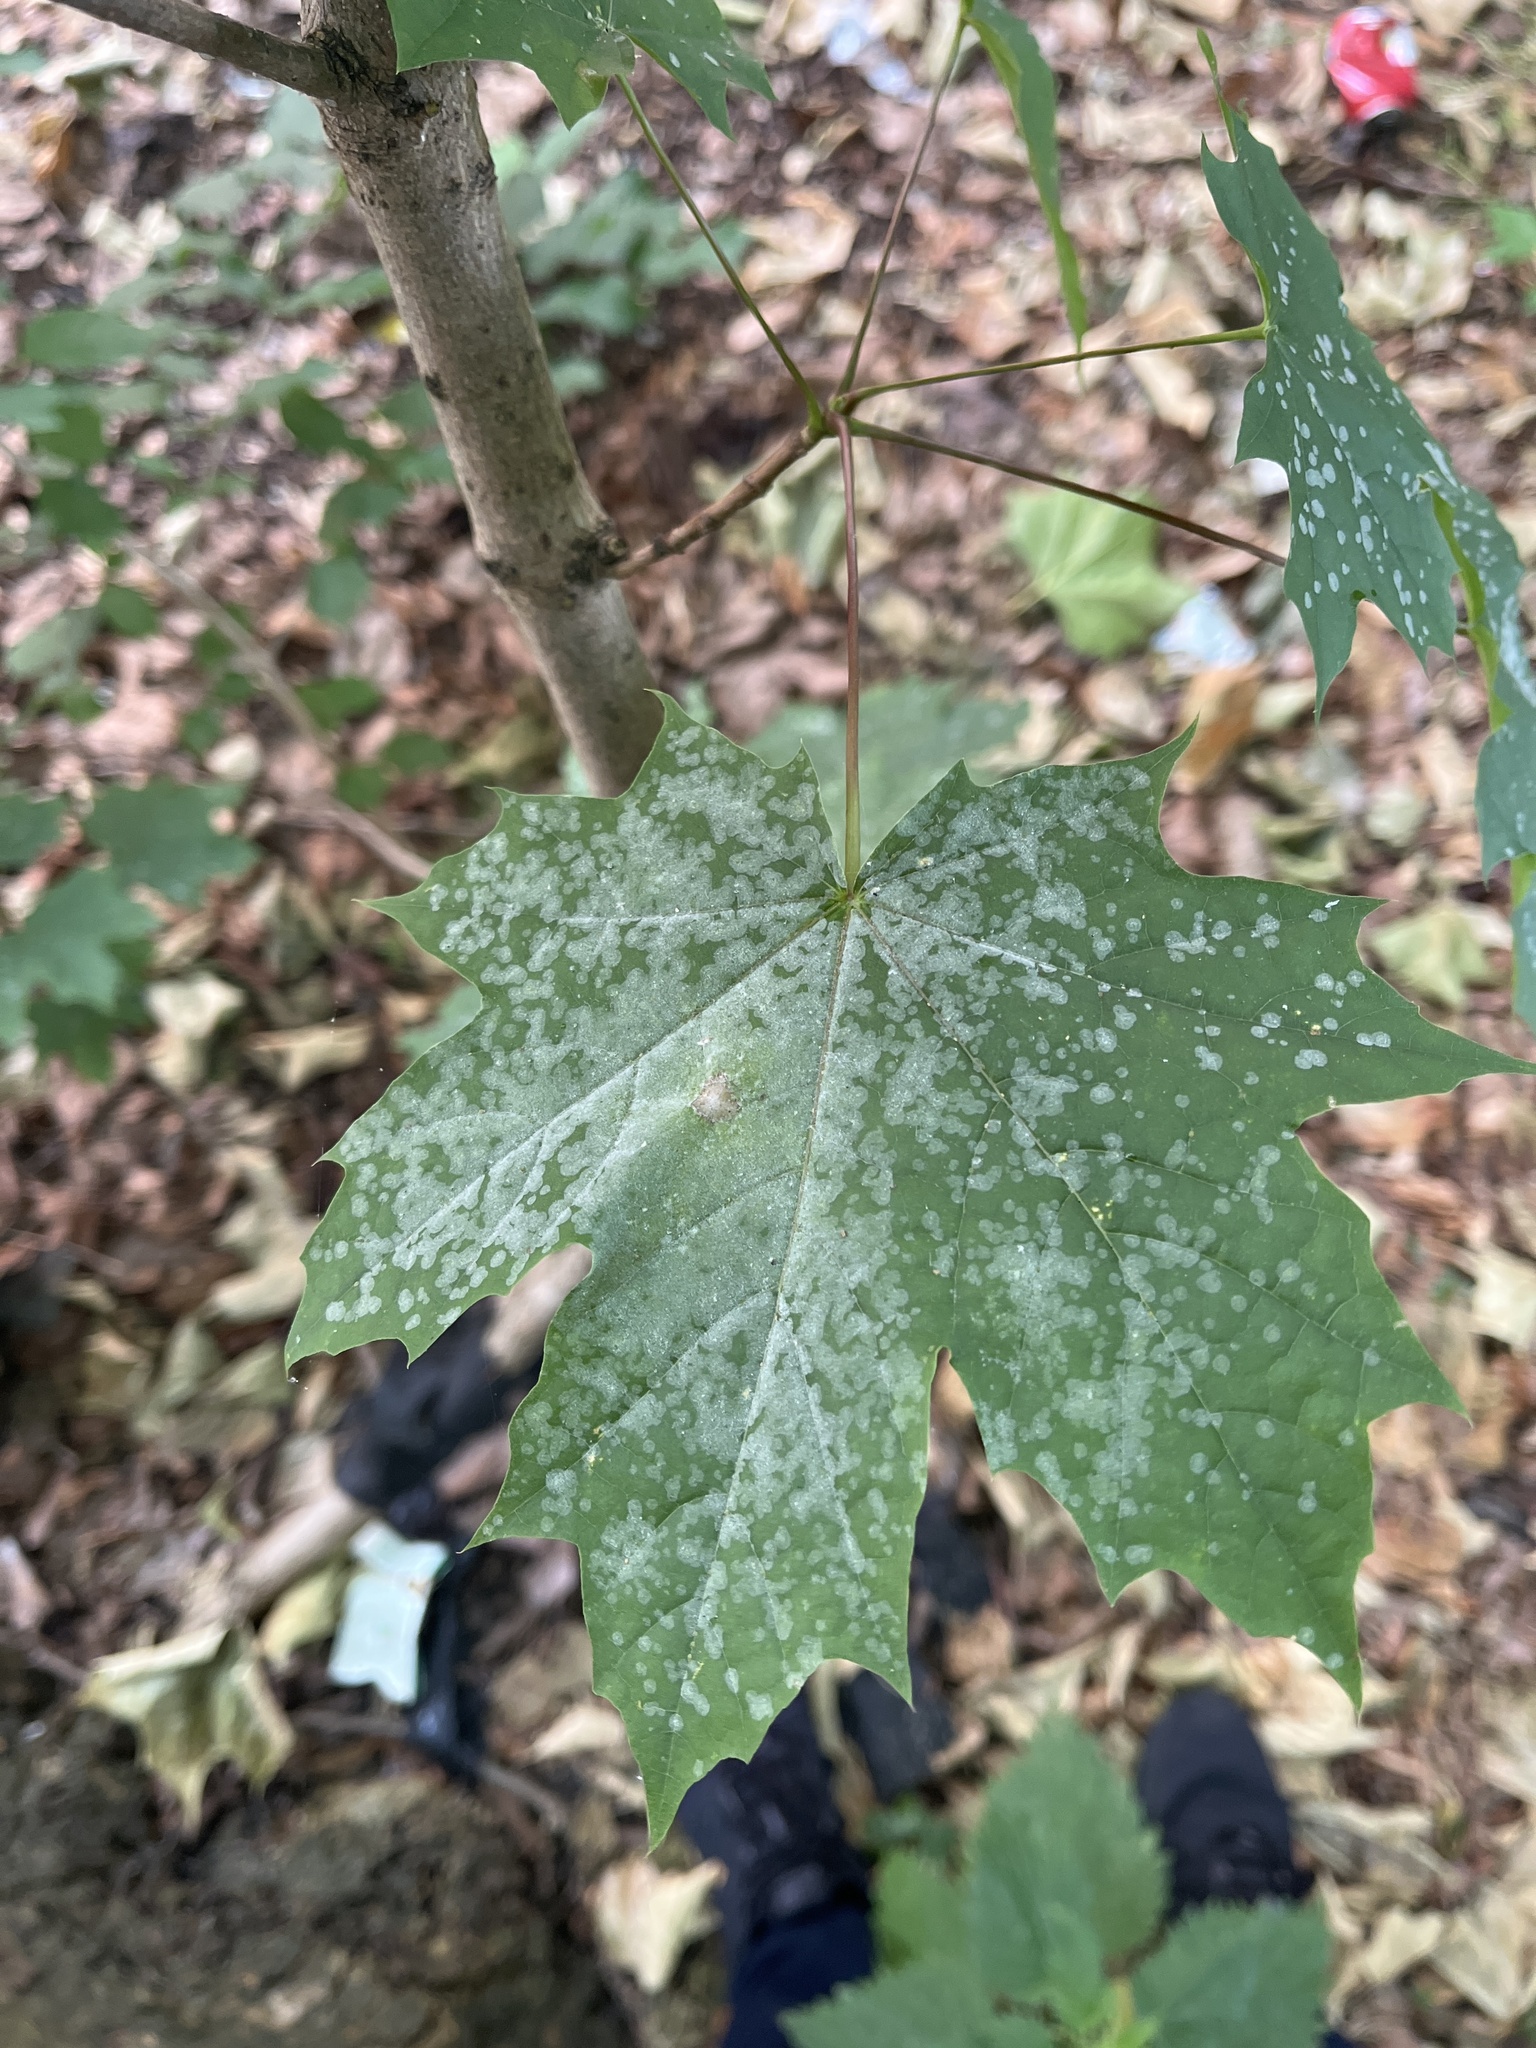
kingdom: Fungi
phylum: Ascomycota
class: Leotiomycetes
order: Helotiales
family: Erysiphaceae
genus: Sawadaea
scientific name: Sawadaea tulasnei
